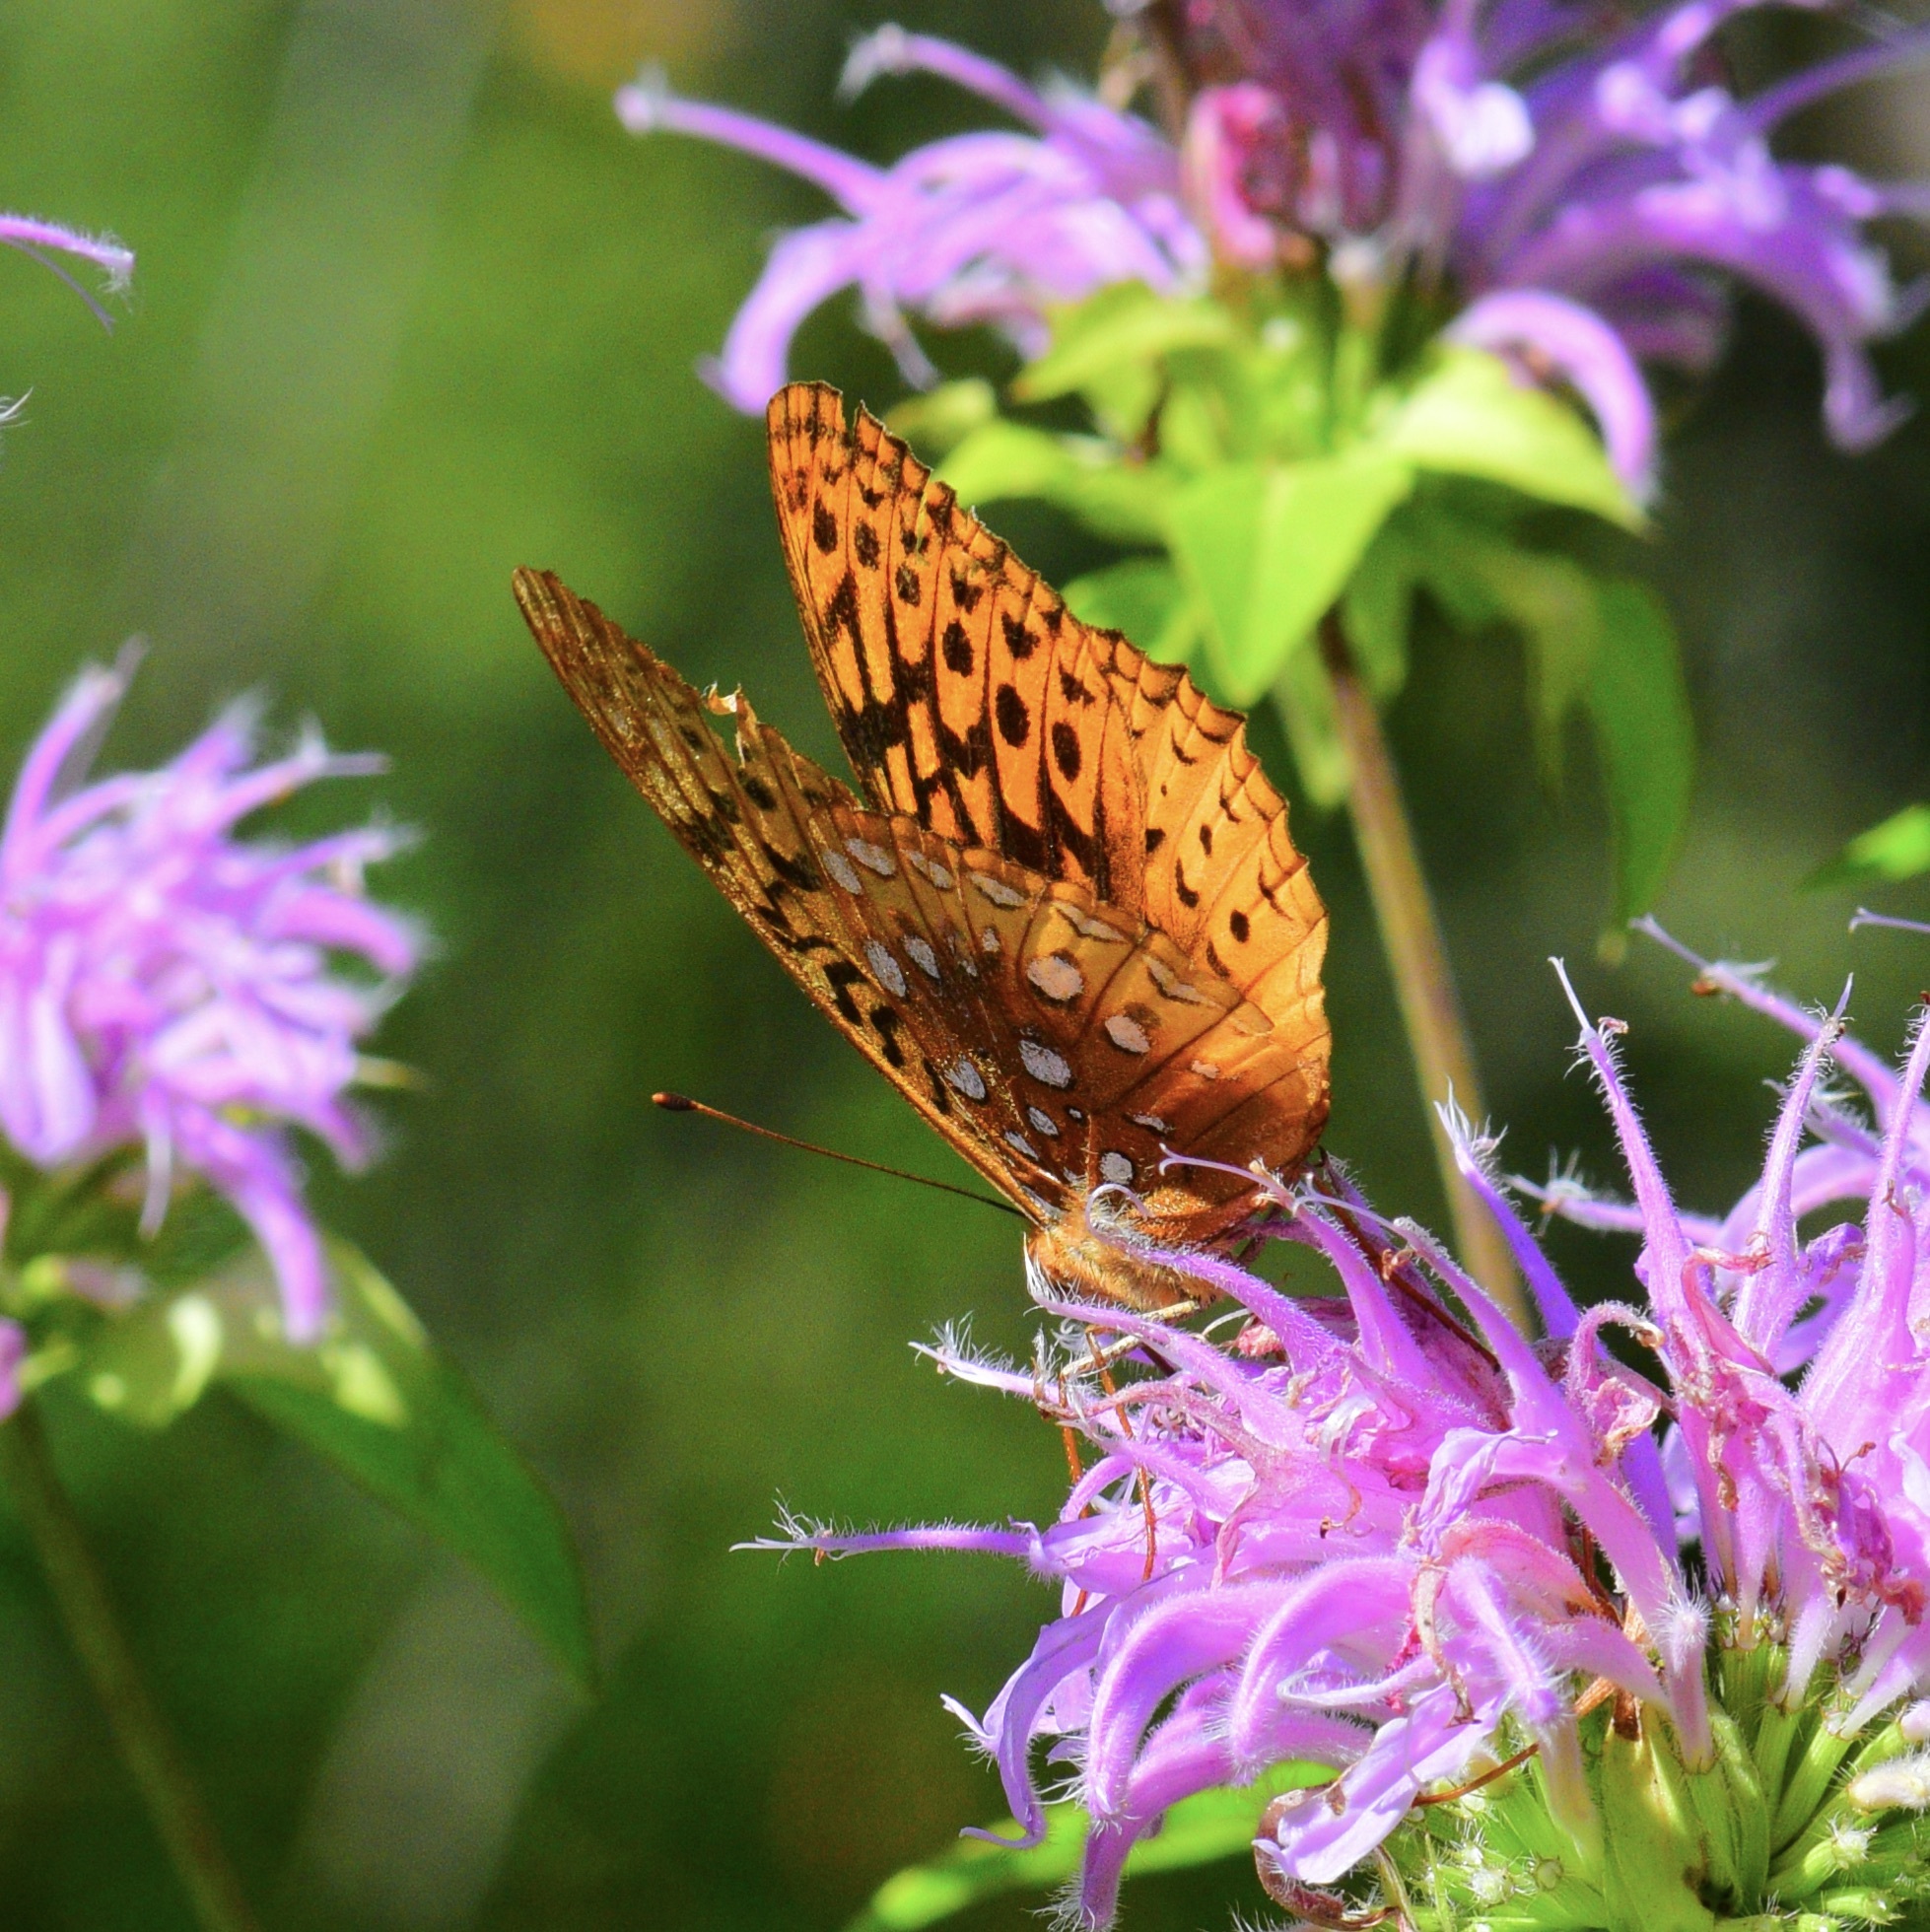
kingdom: Animalia
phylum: Arthropoda
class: Insecta
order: Lepidoptera
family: Nymphalidae
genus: Speyeria
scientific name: Speyeria cybele
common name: Great spangled fritillary
